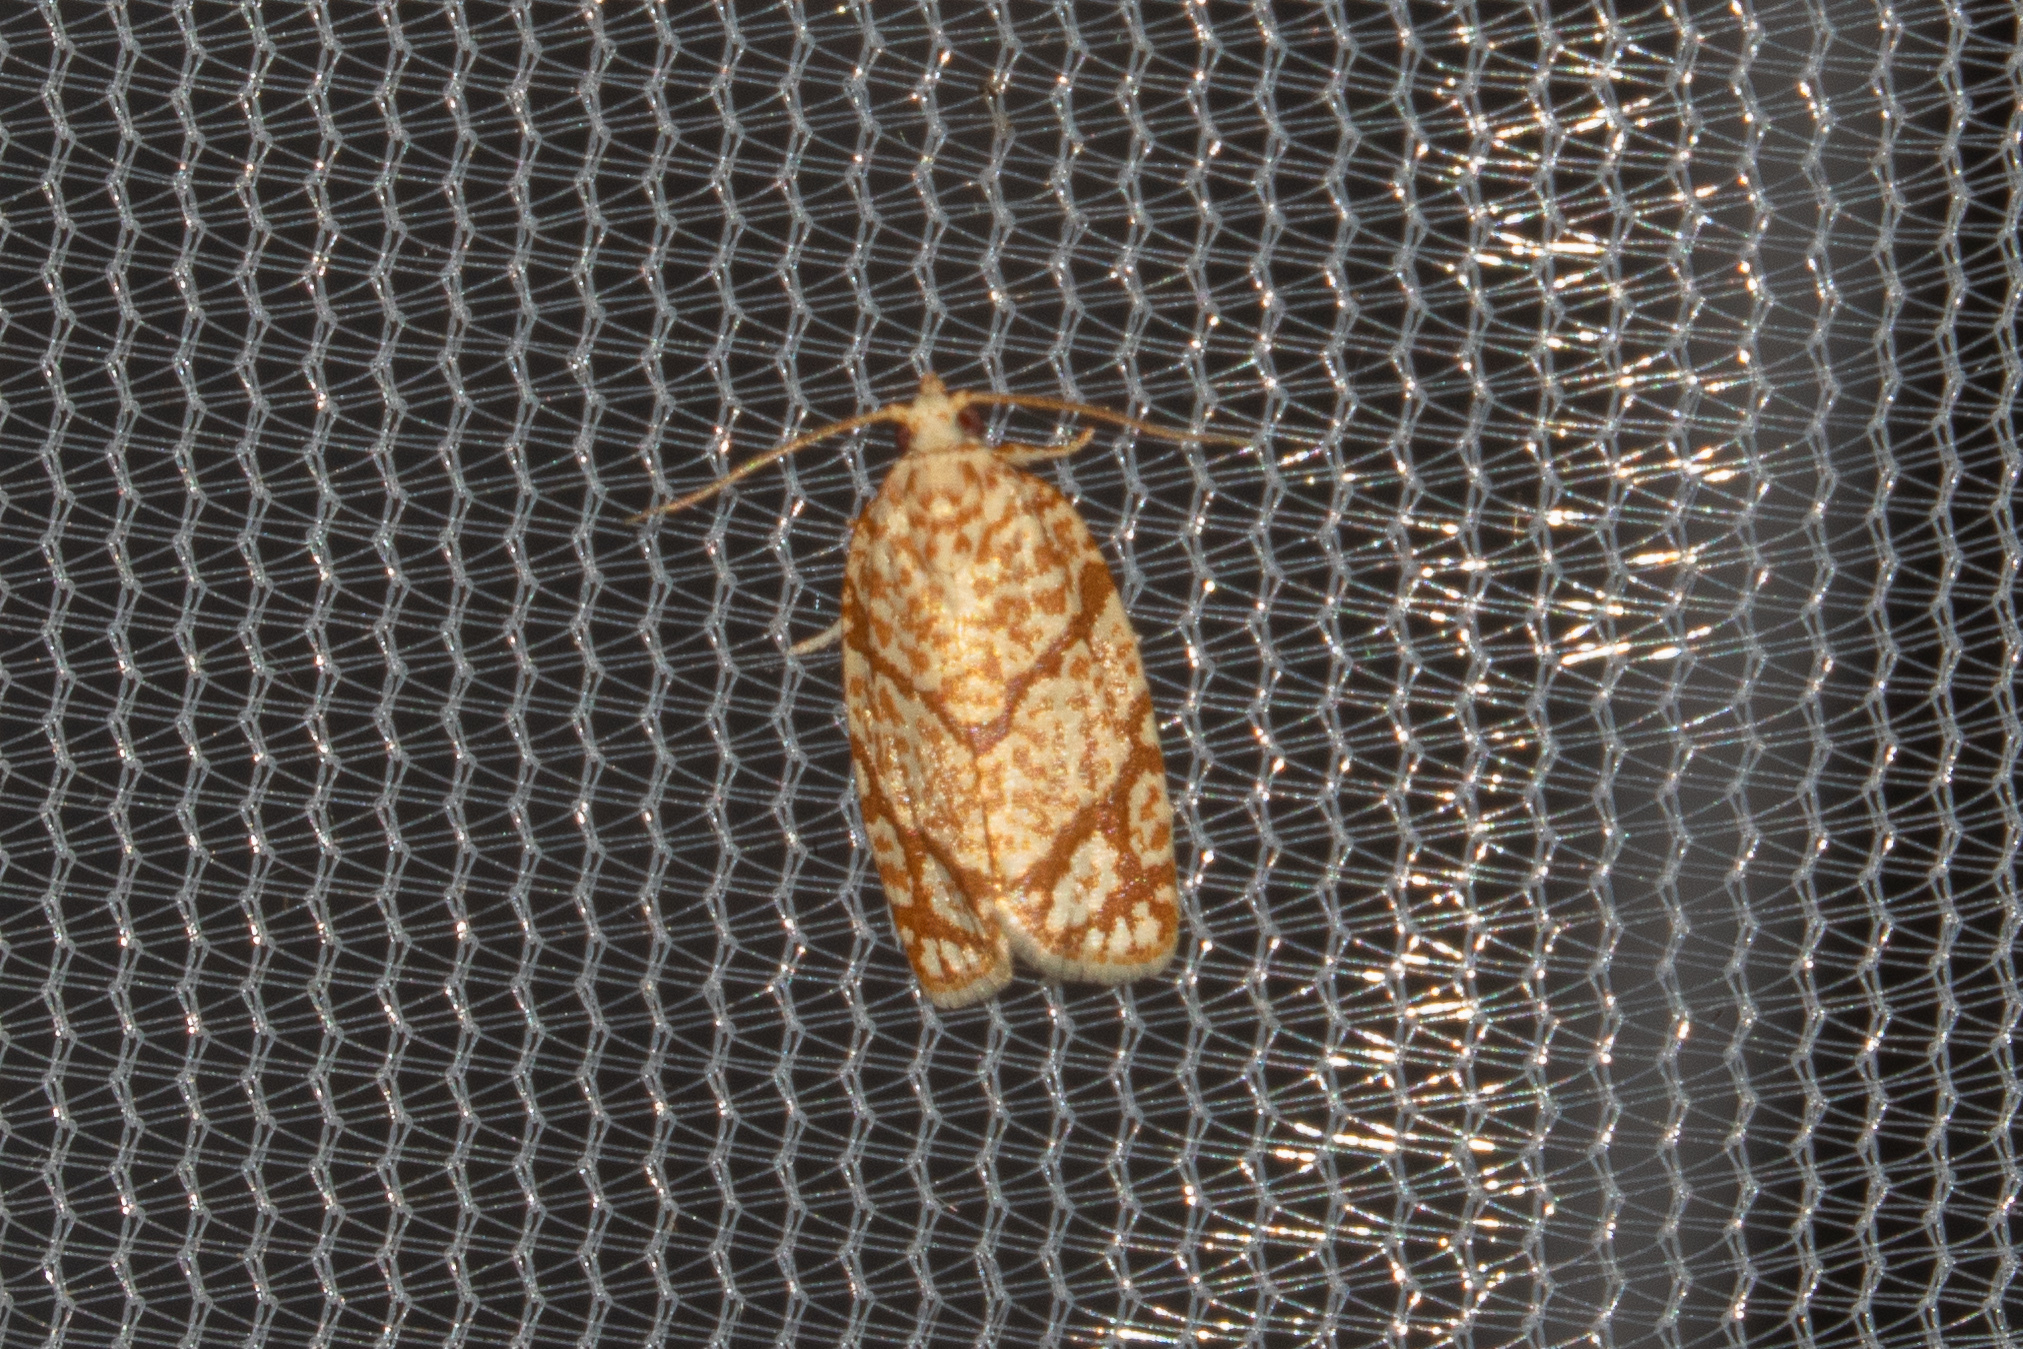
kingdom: Animalia
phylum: Arthropoda
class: Insecta
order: Lepidoptera
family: Tortricidae
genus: Argyrotaenia
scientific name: Argyrotaenia quercifoliana
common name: Yellow-winged oak leafroller moth
